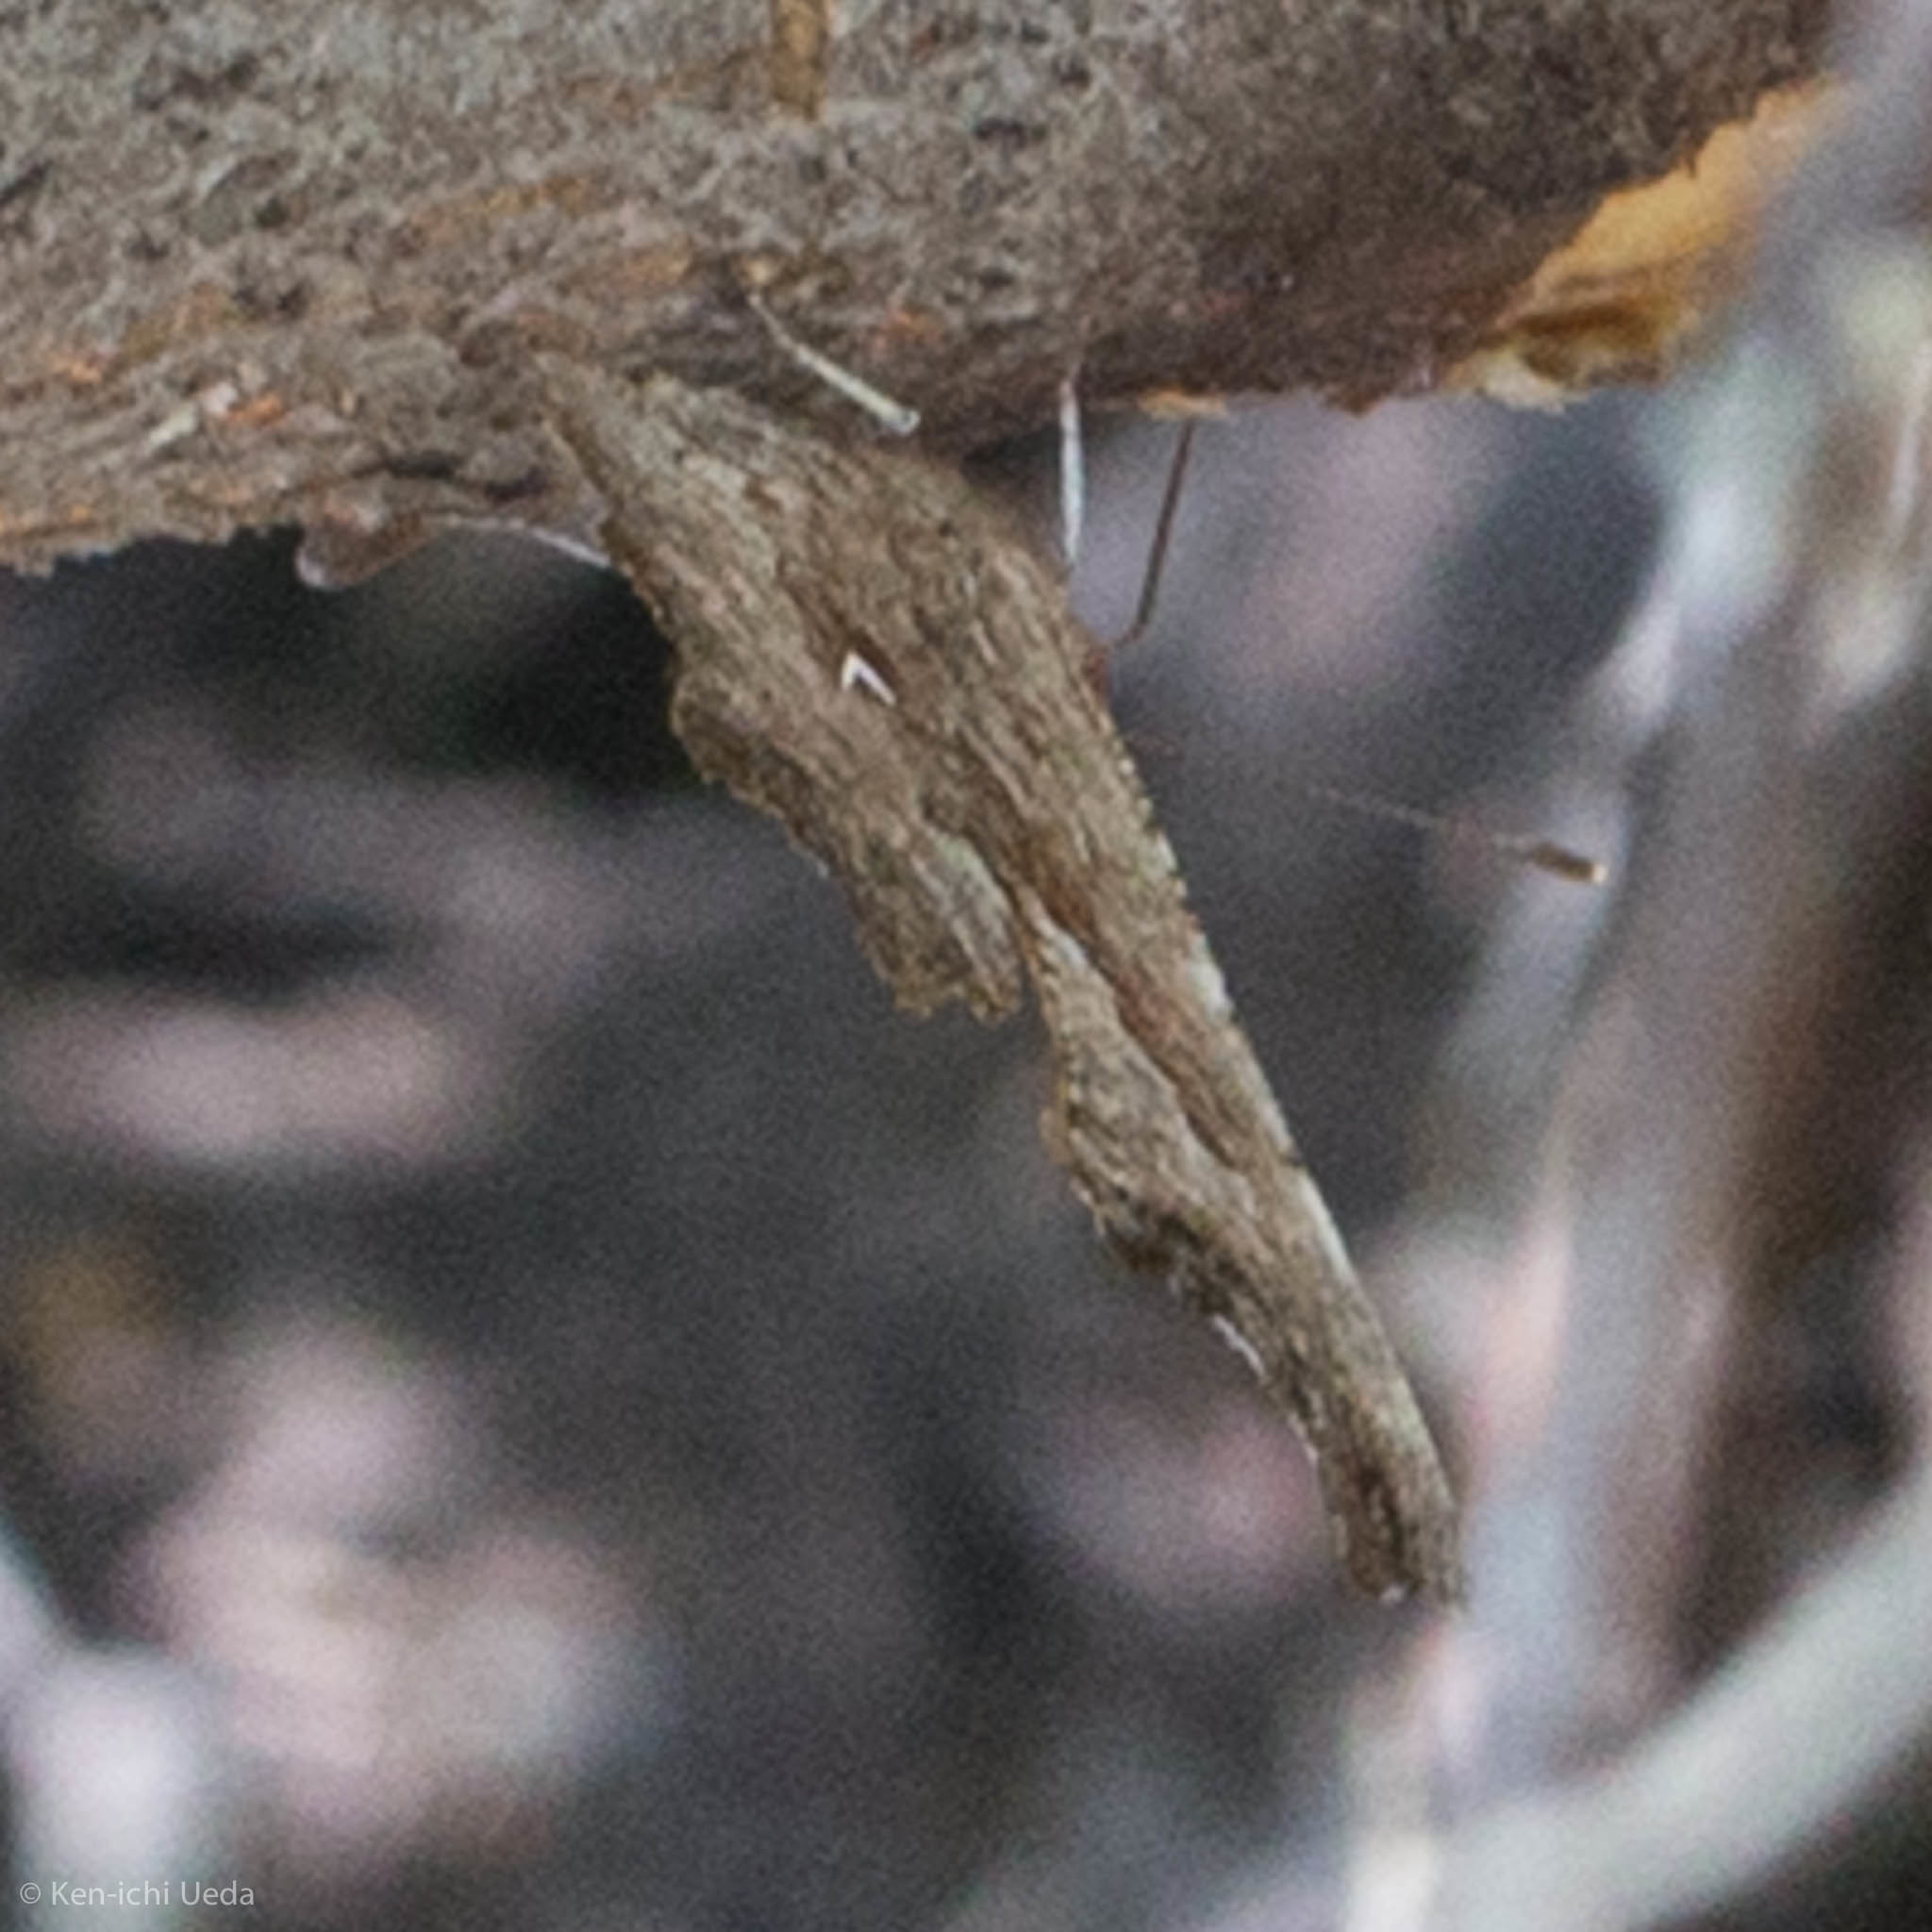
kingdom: Animalia
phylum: Arthropoda
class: Insecta
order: Lepidoptera
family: Nymphalidae
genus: Polygonia
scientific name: Polygonia gracilis
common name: Hoary comma
